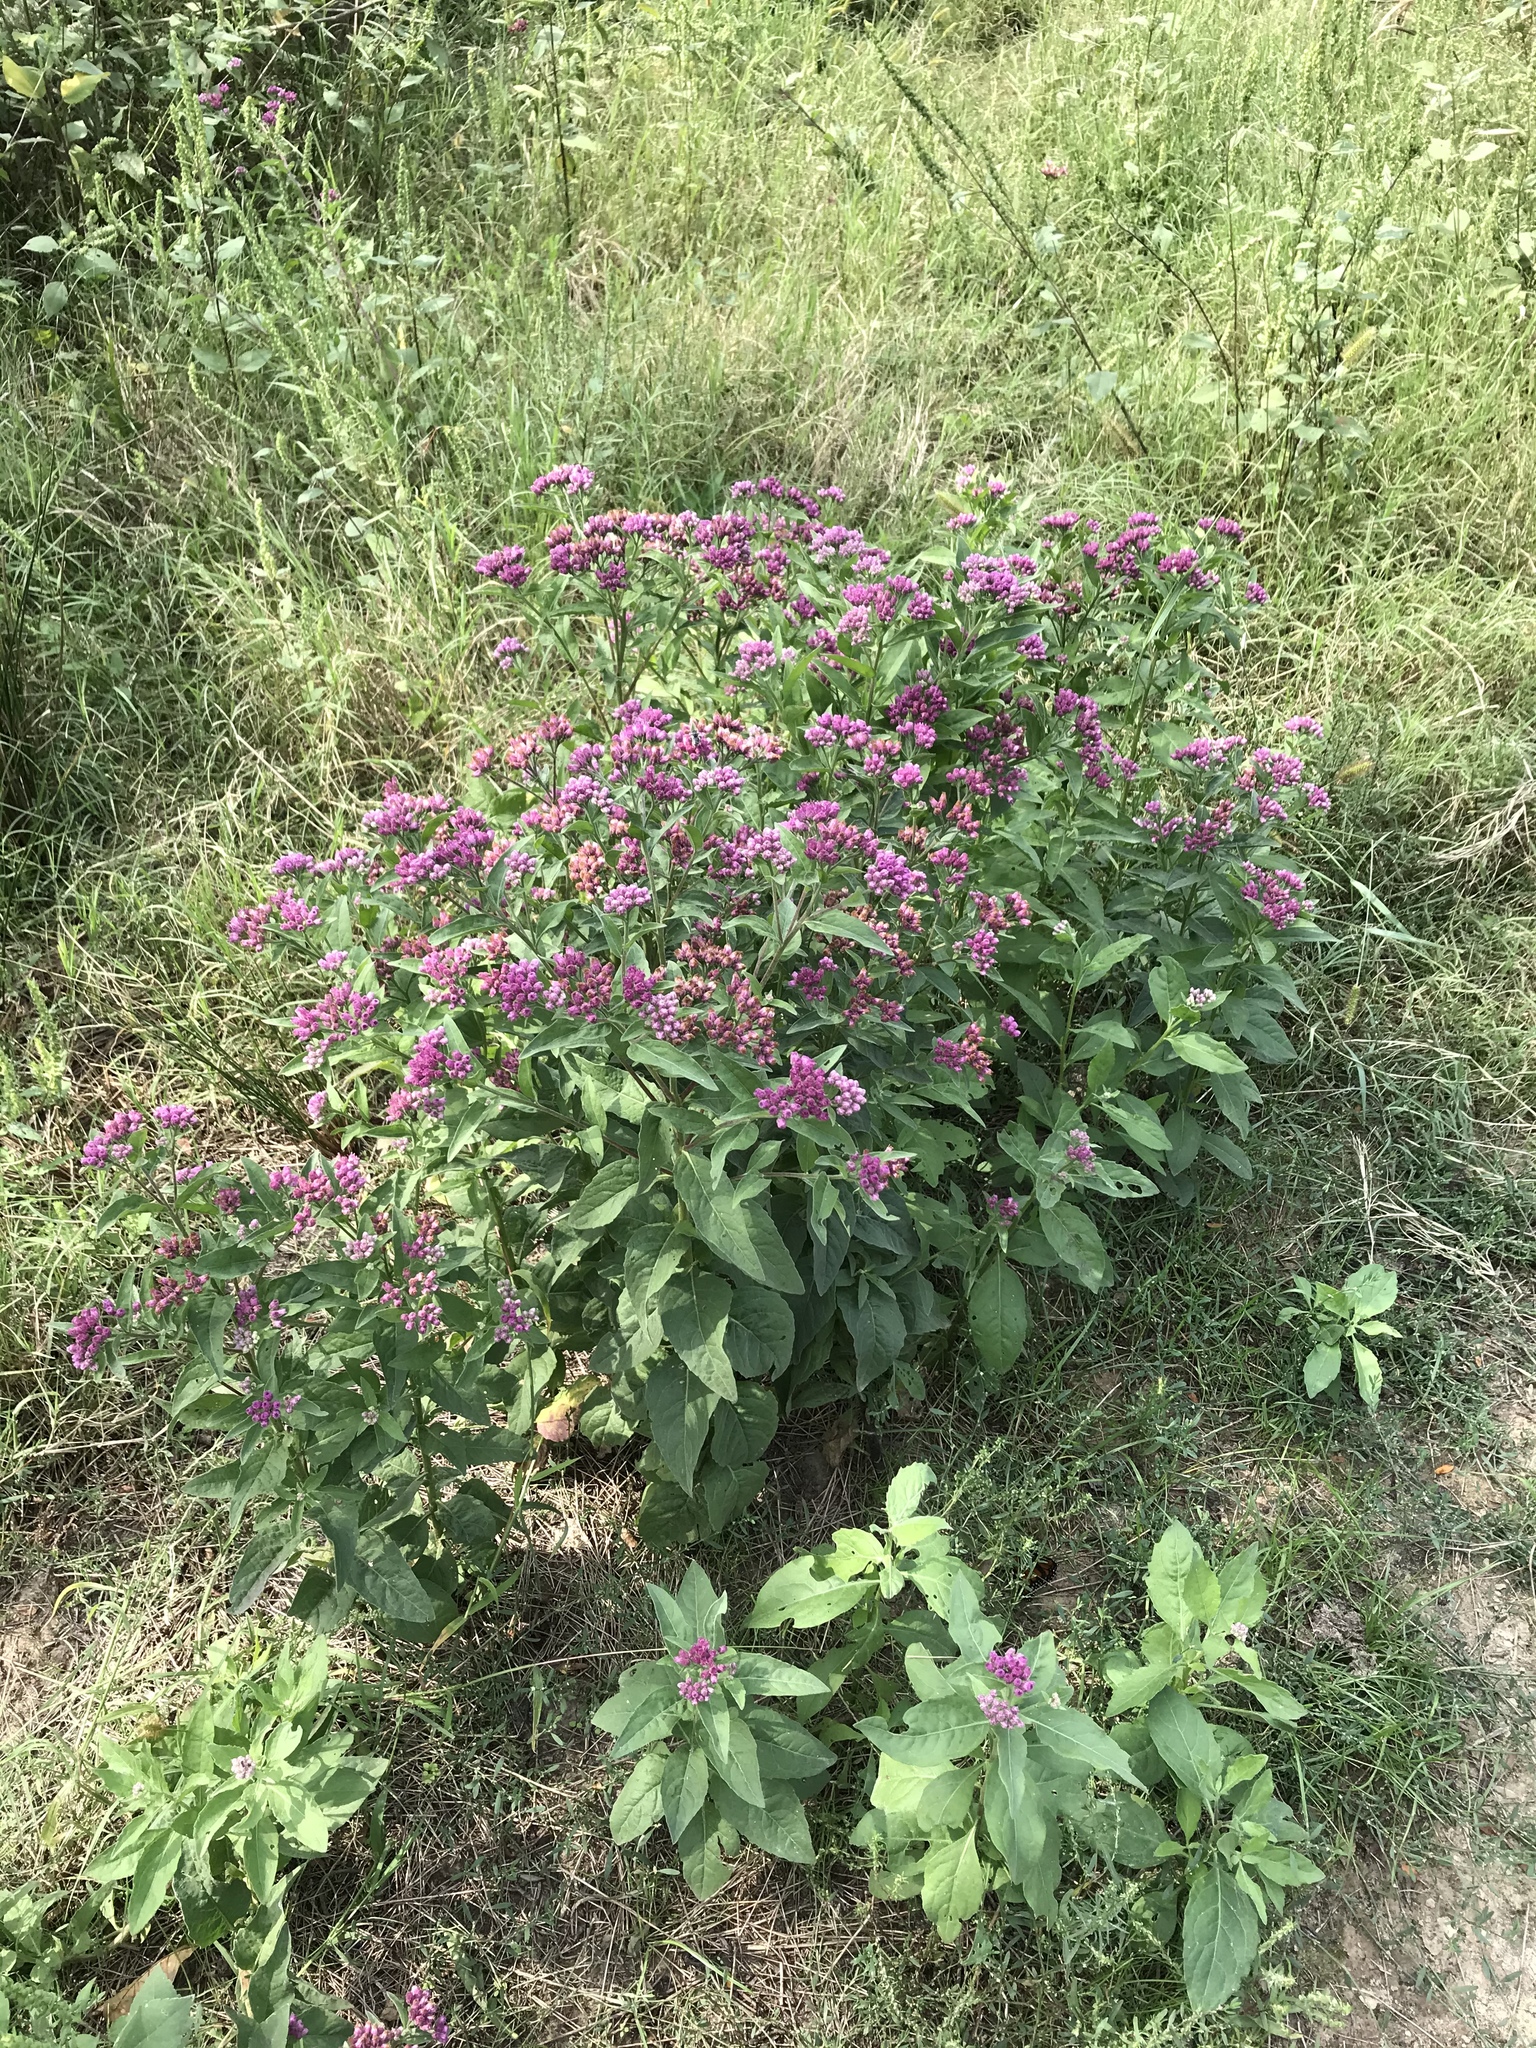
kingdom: Plantae
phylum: Tracheophyta
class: Magnoliopsida
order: Asterales
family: Asteraceae
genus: Pluchea
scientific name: Pluchea odorata
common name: Saltmarsh fleabane
